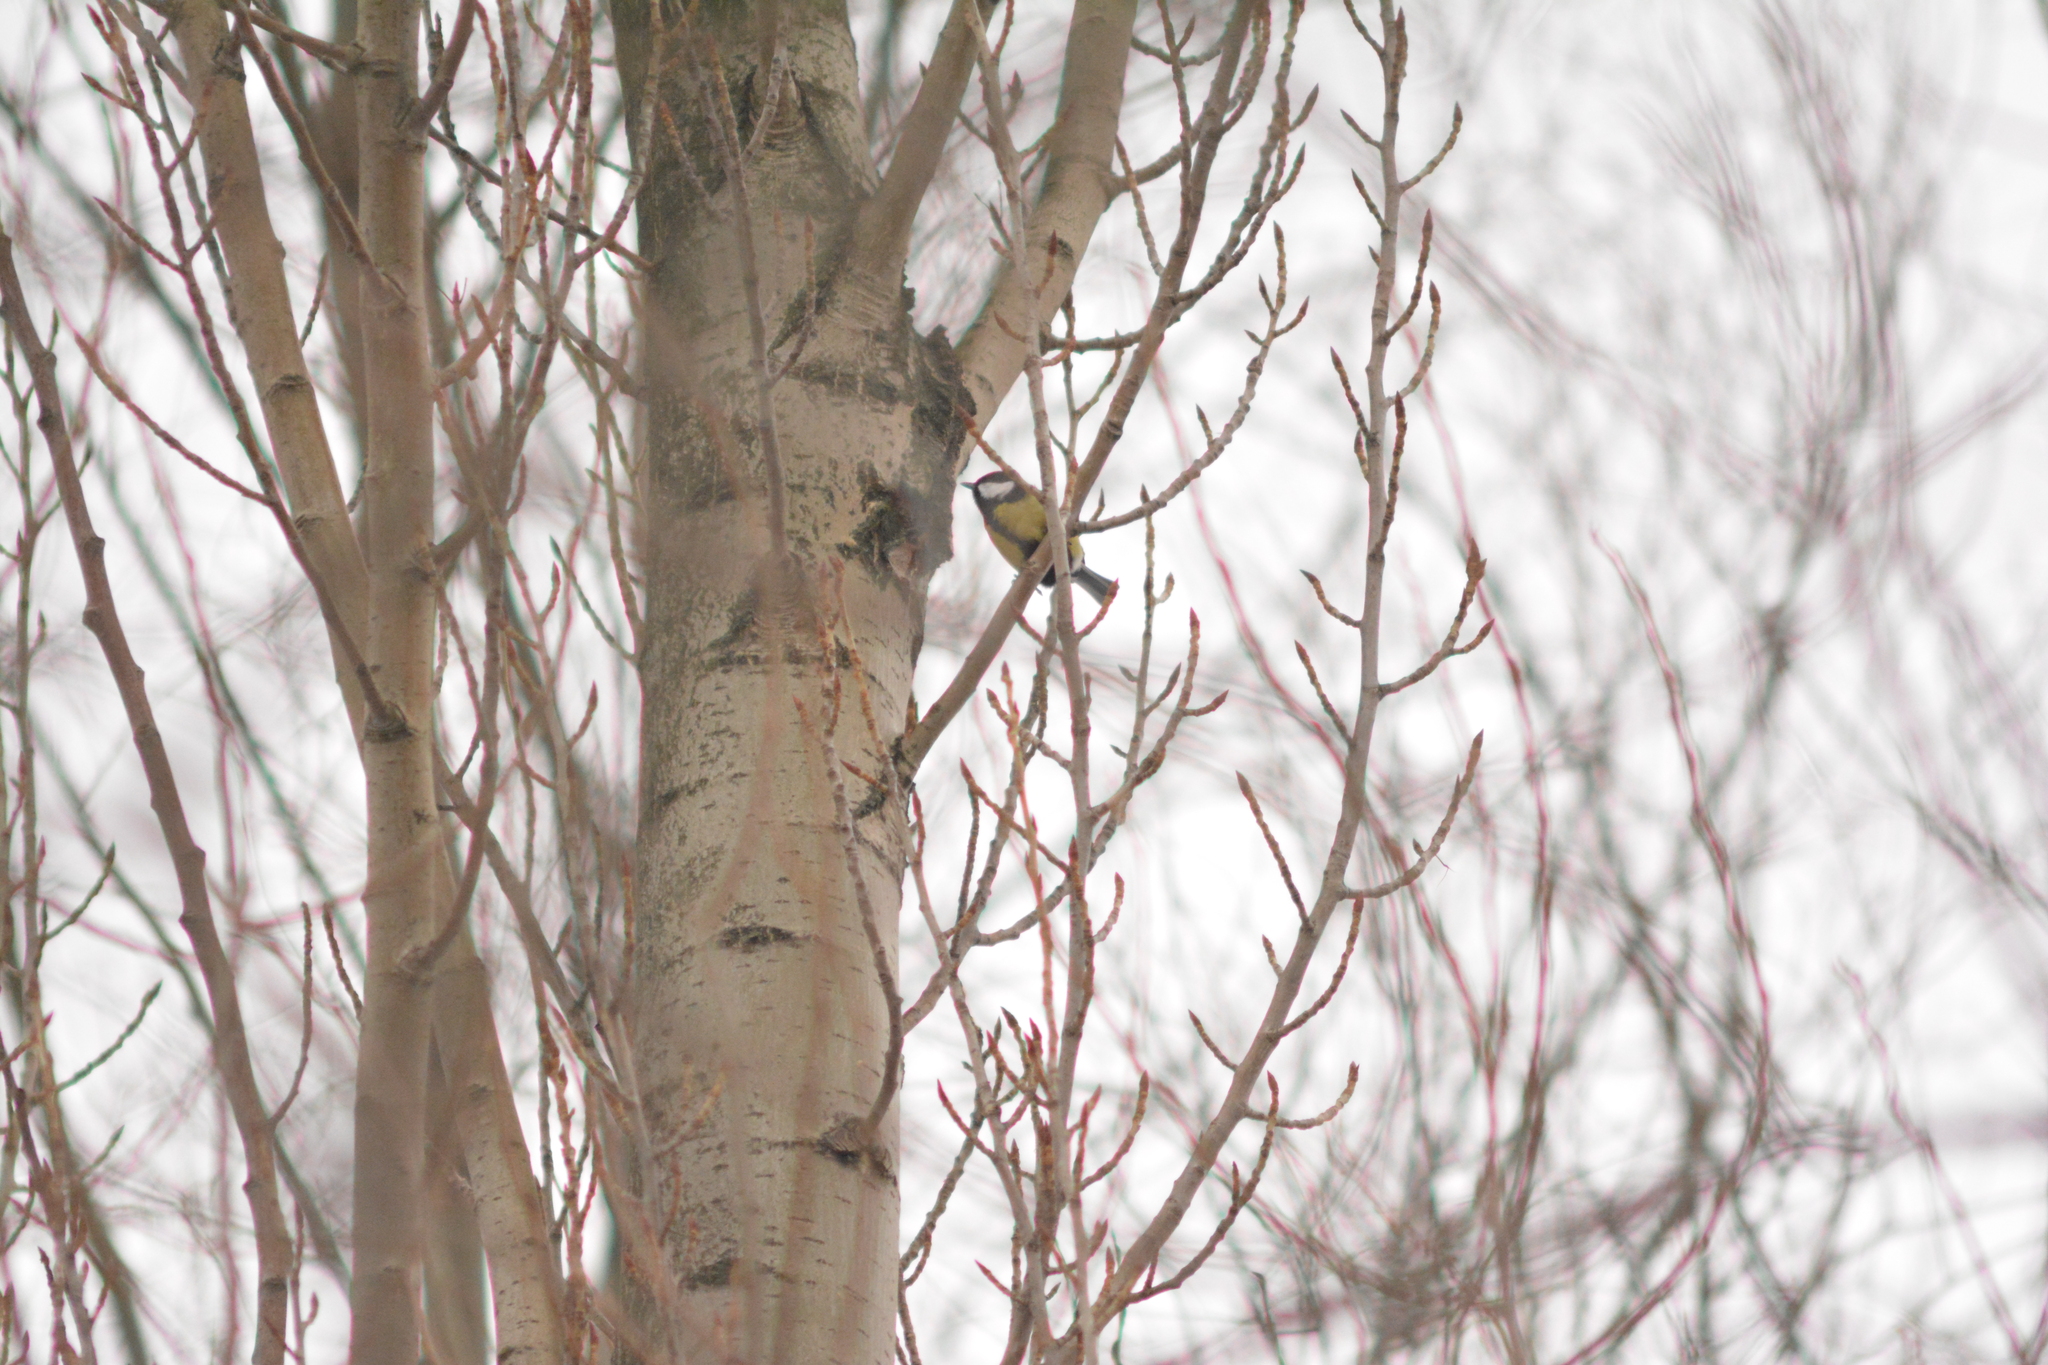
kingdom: Animalia
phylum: Chordata
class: Aves
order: Passeriformes
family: Paridae
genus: Parus
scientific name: Parus major
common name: Great tit
